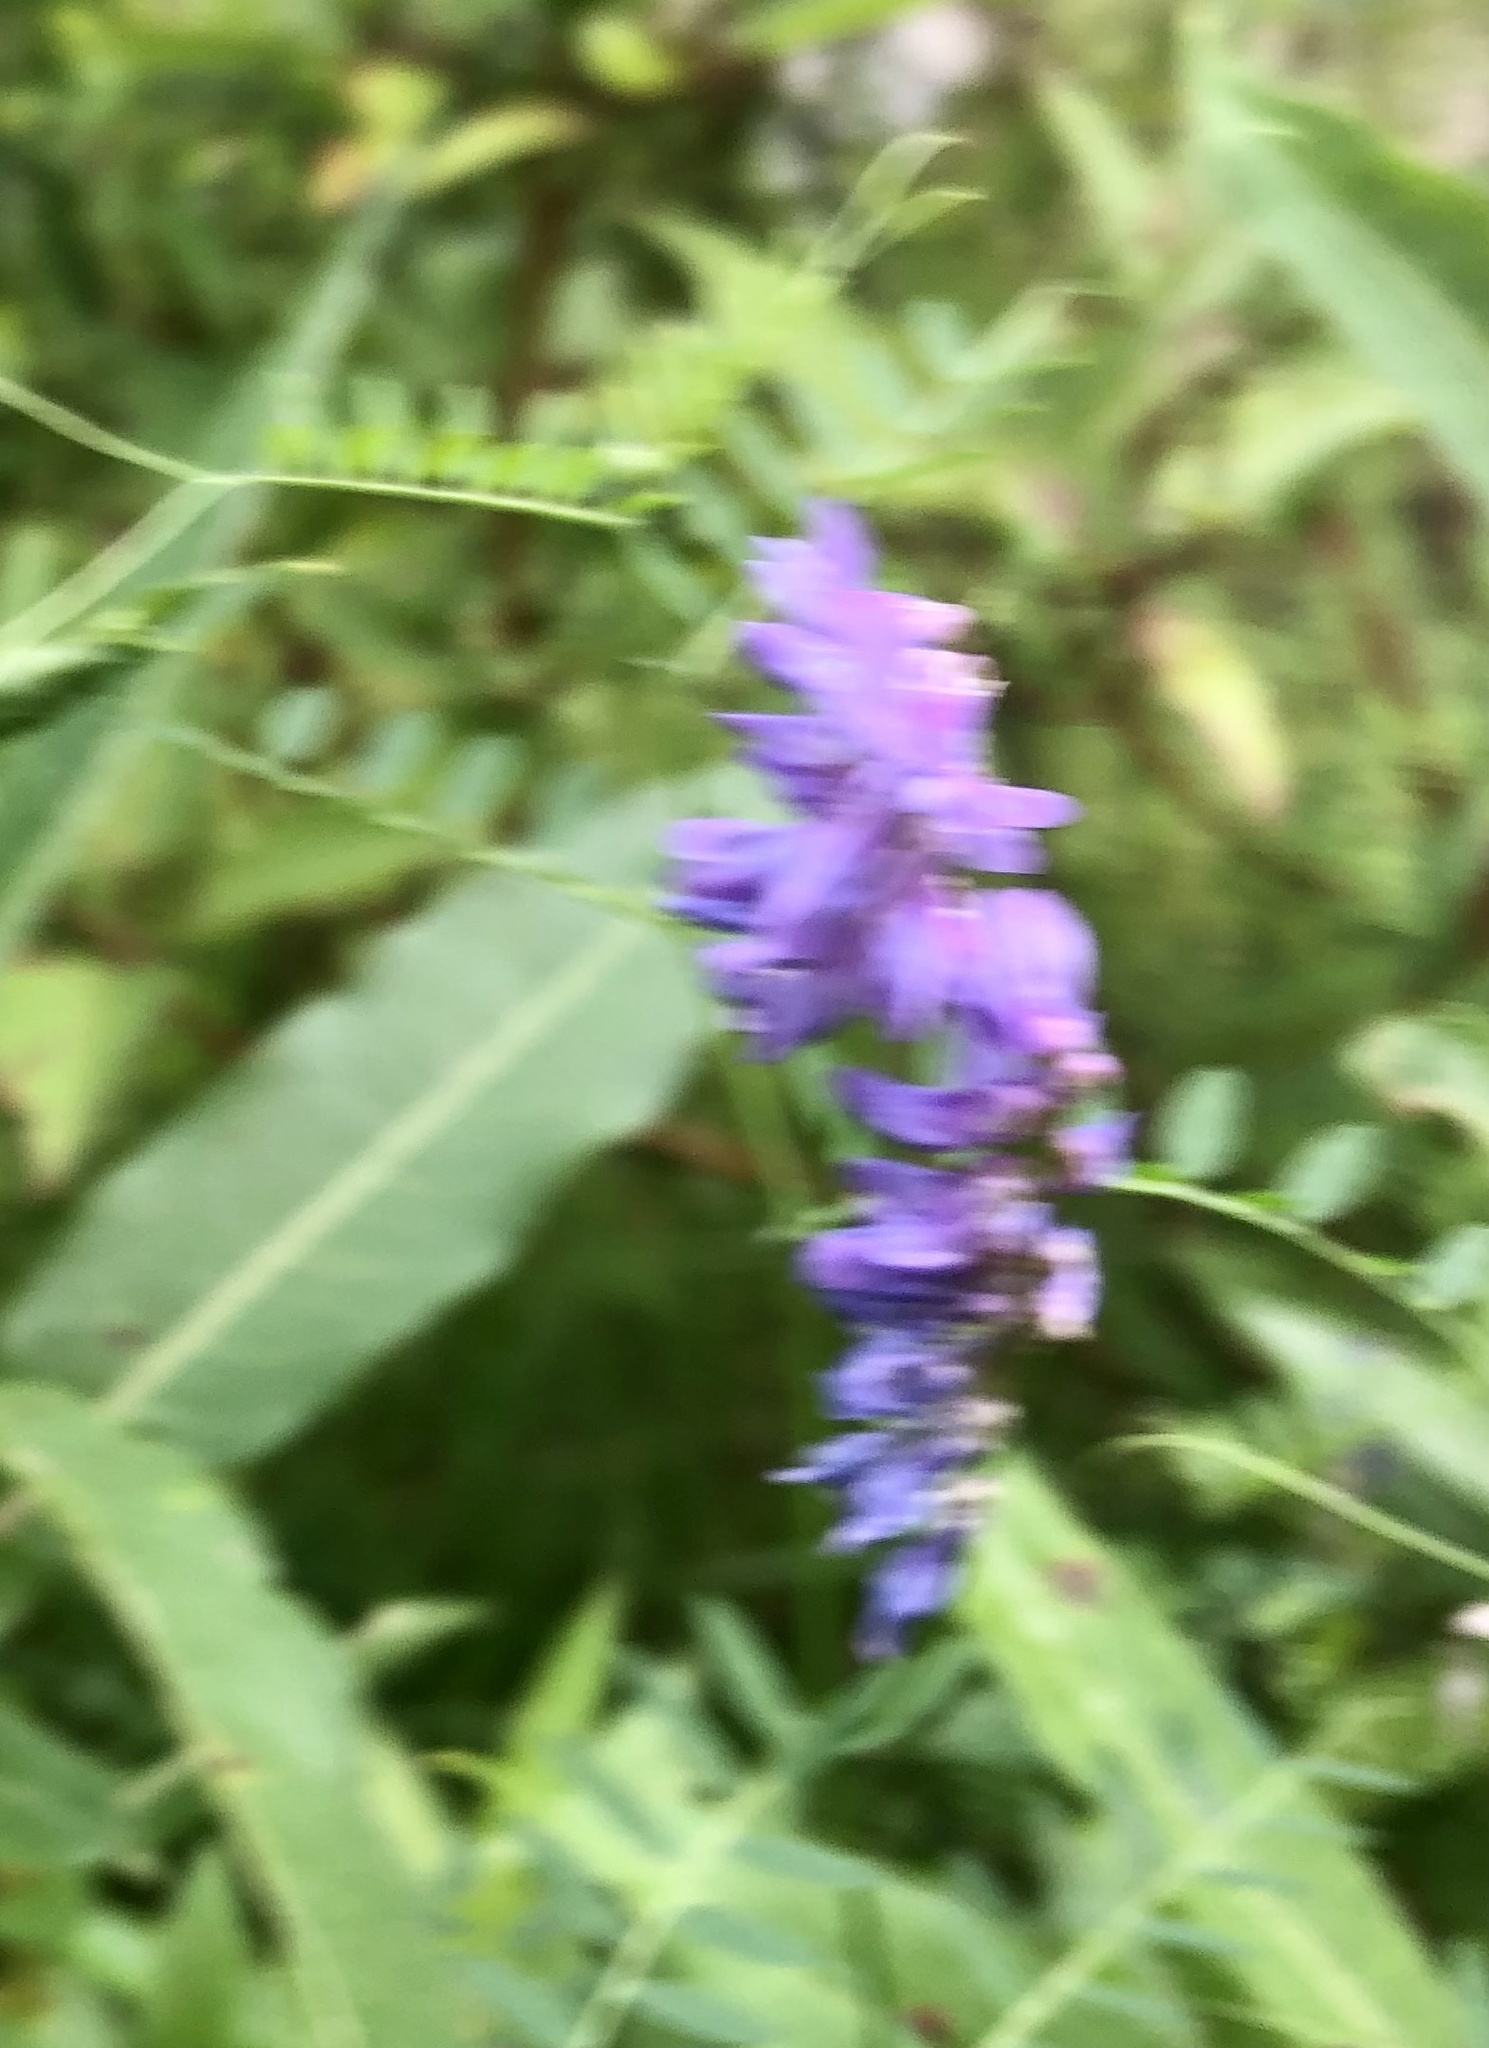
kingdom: Plantae
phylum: Tracheophyta
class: Magnoliopsida
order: Fabales
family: Fabaceae
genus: Vicia
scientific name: Vicia cracca
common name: Bird vetch
